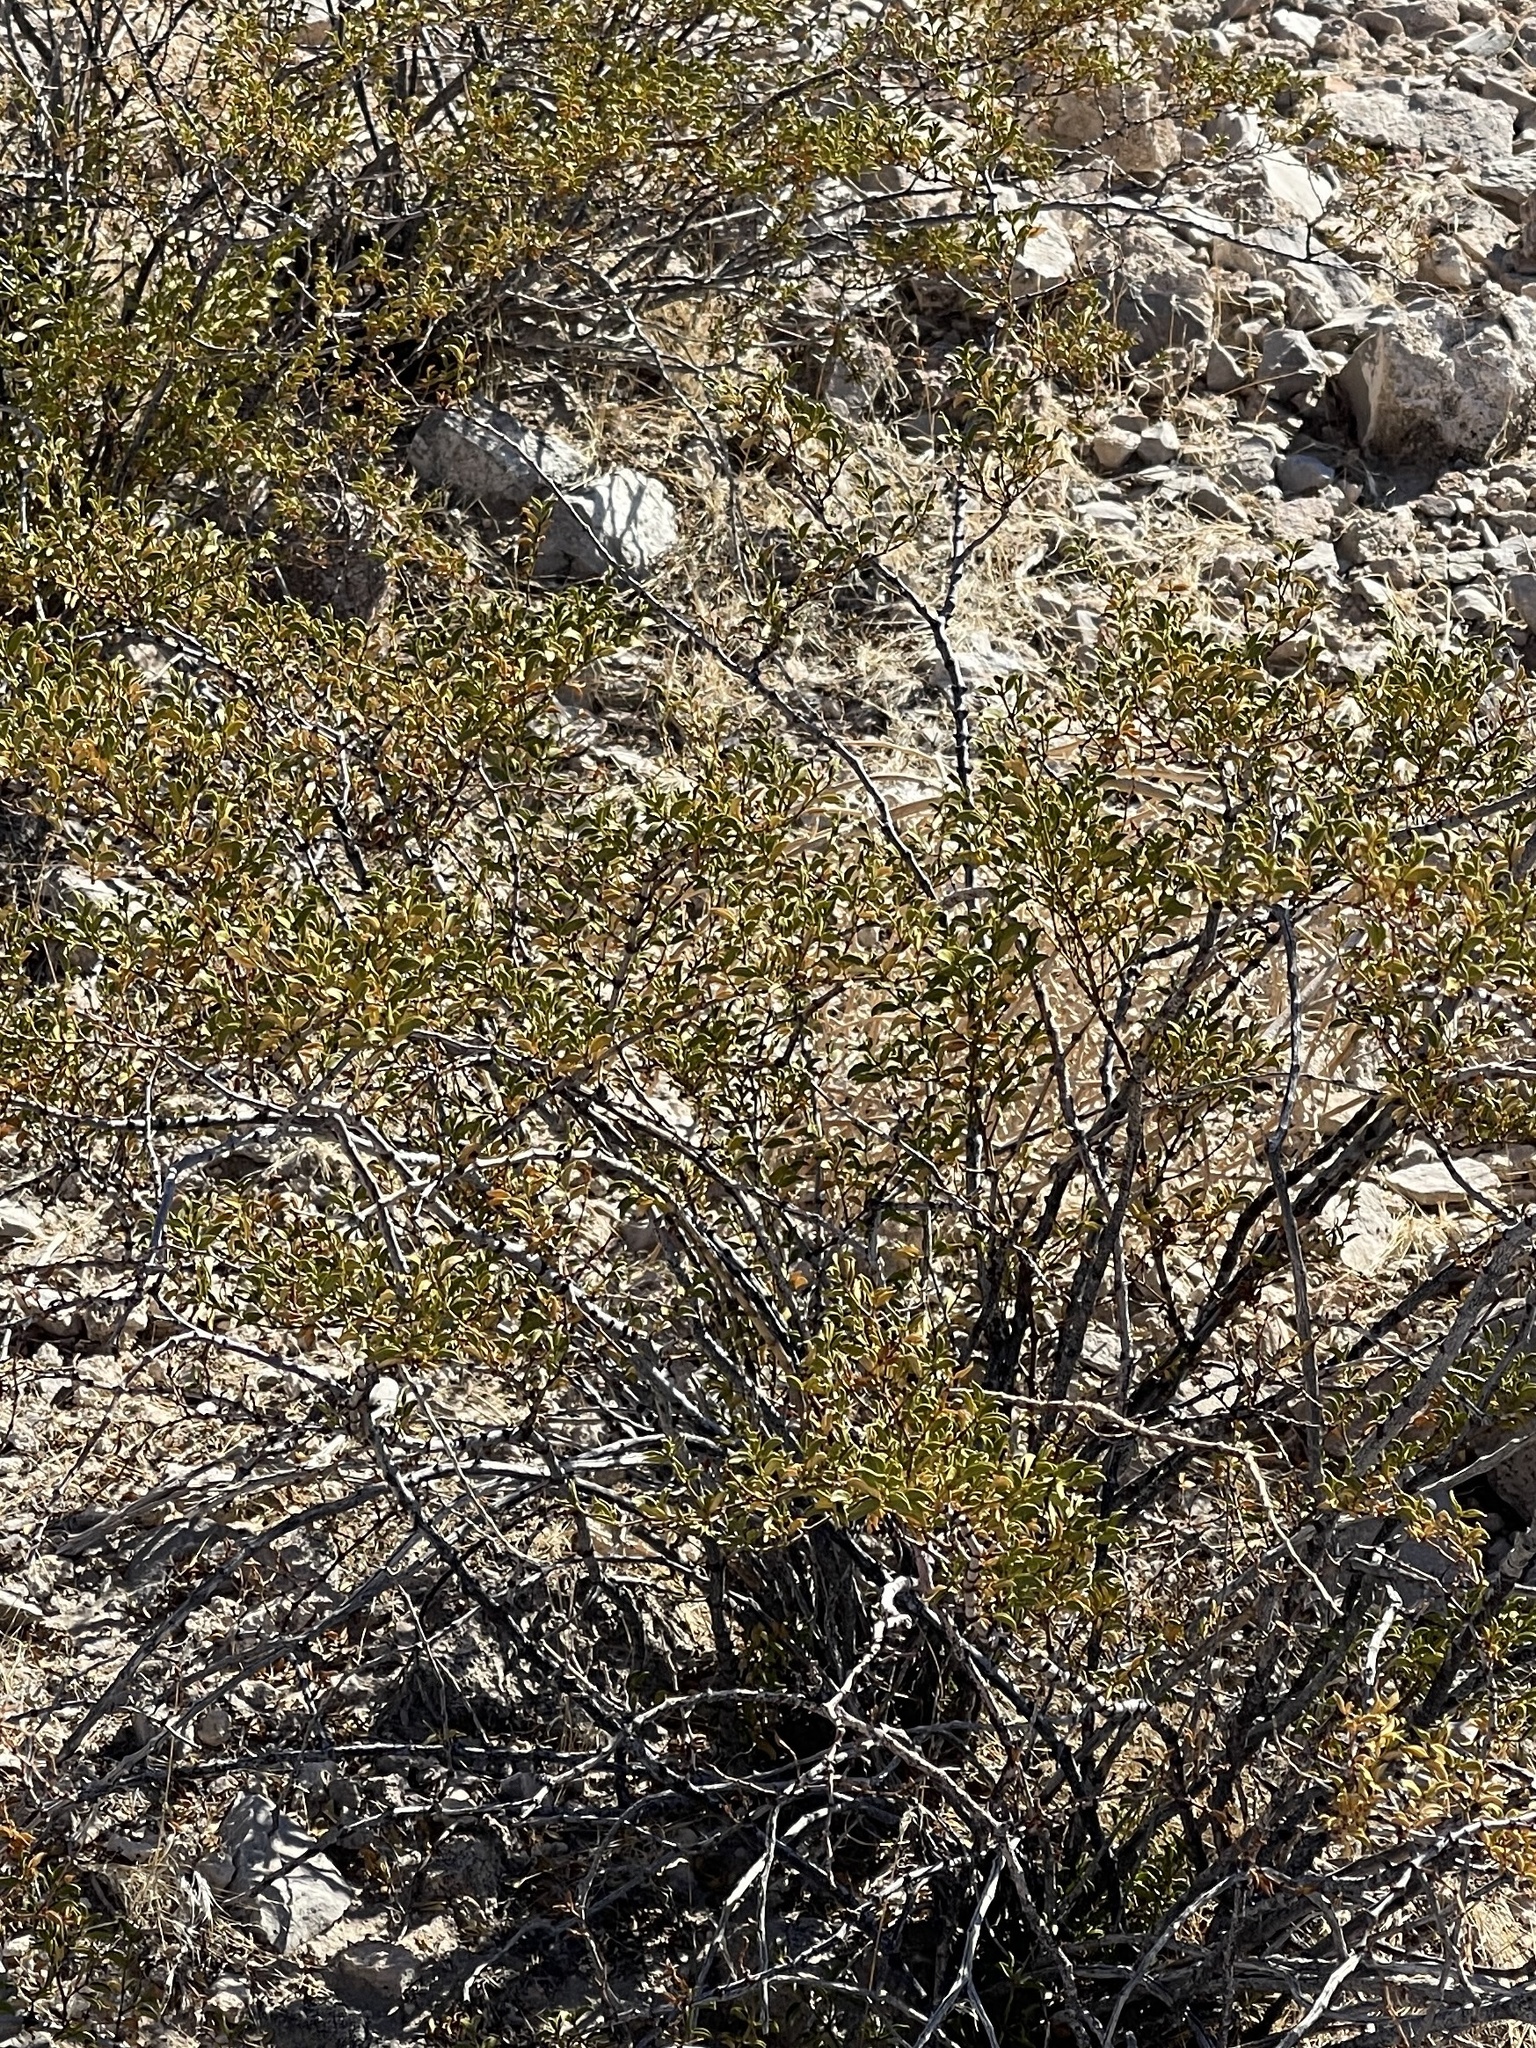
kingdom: Plantae
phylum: Tracheophyta
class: Magnoliopsida
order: Zygophyllales
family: Zygophyllaceae
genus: Larrea
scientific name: Larrea tridentata
